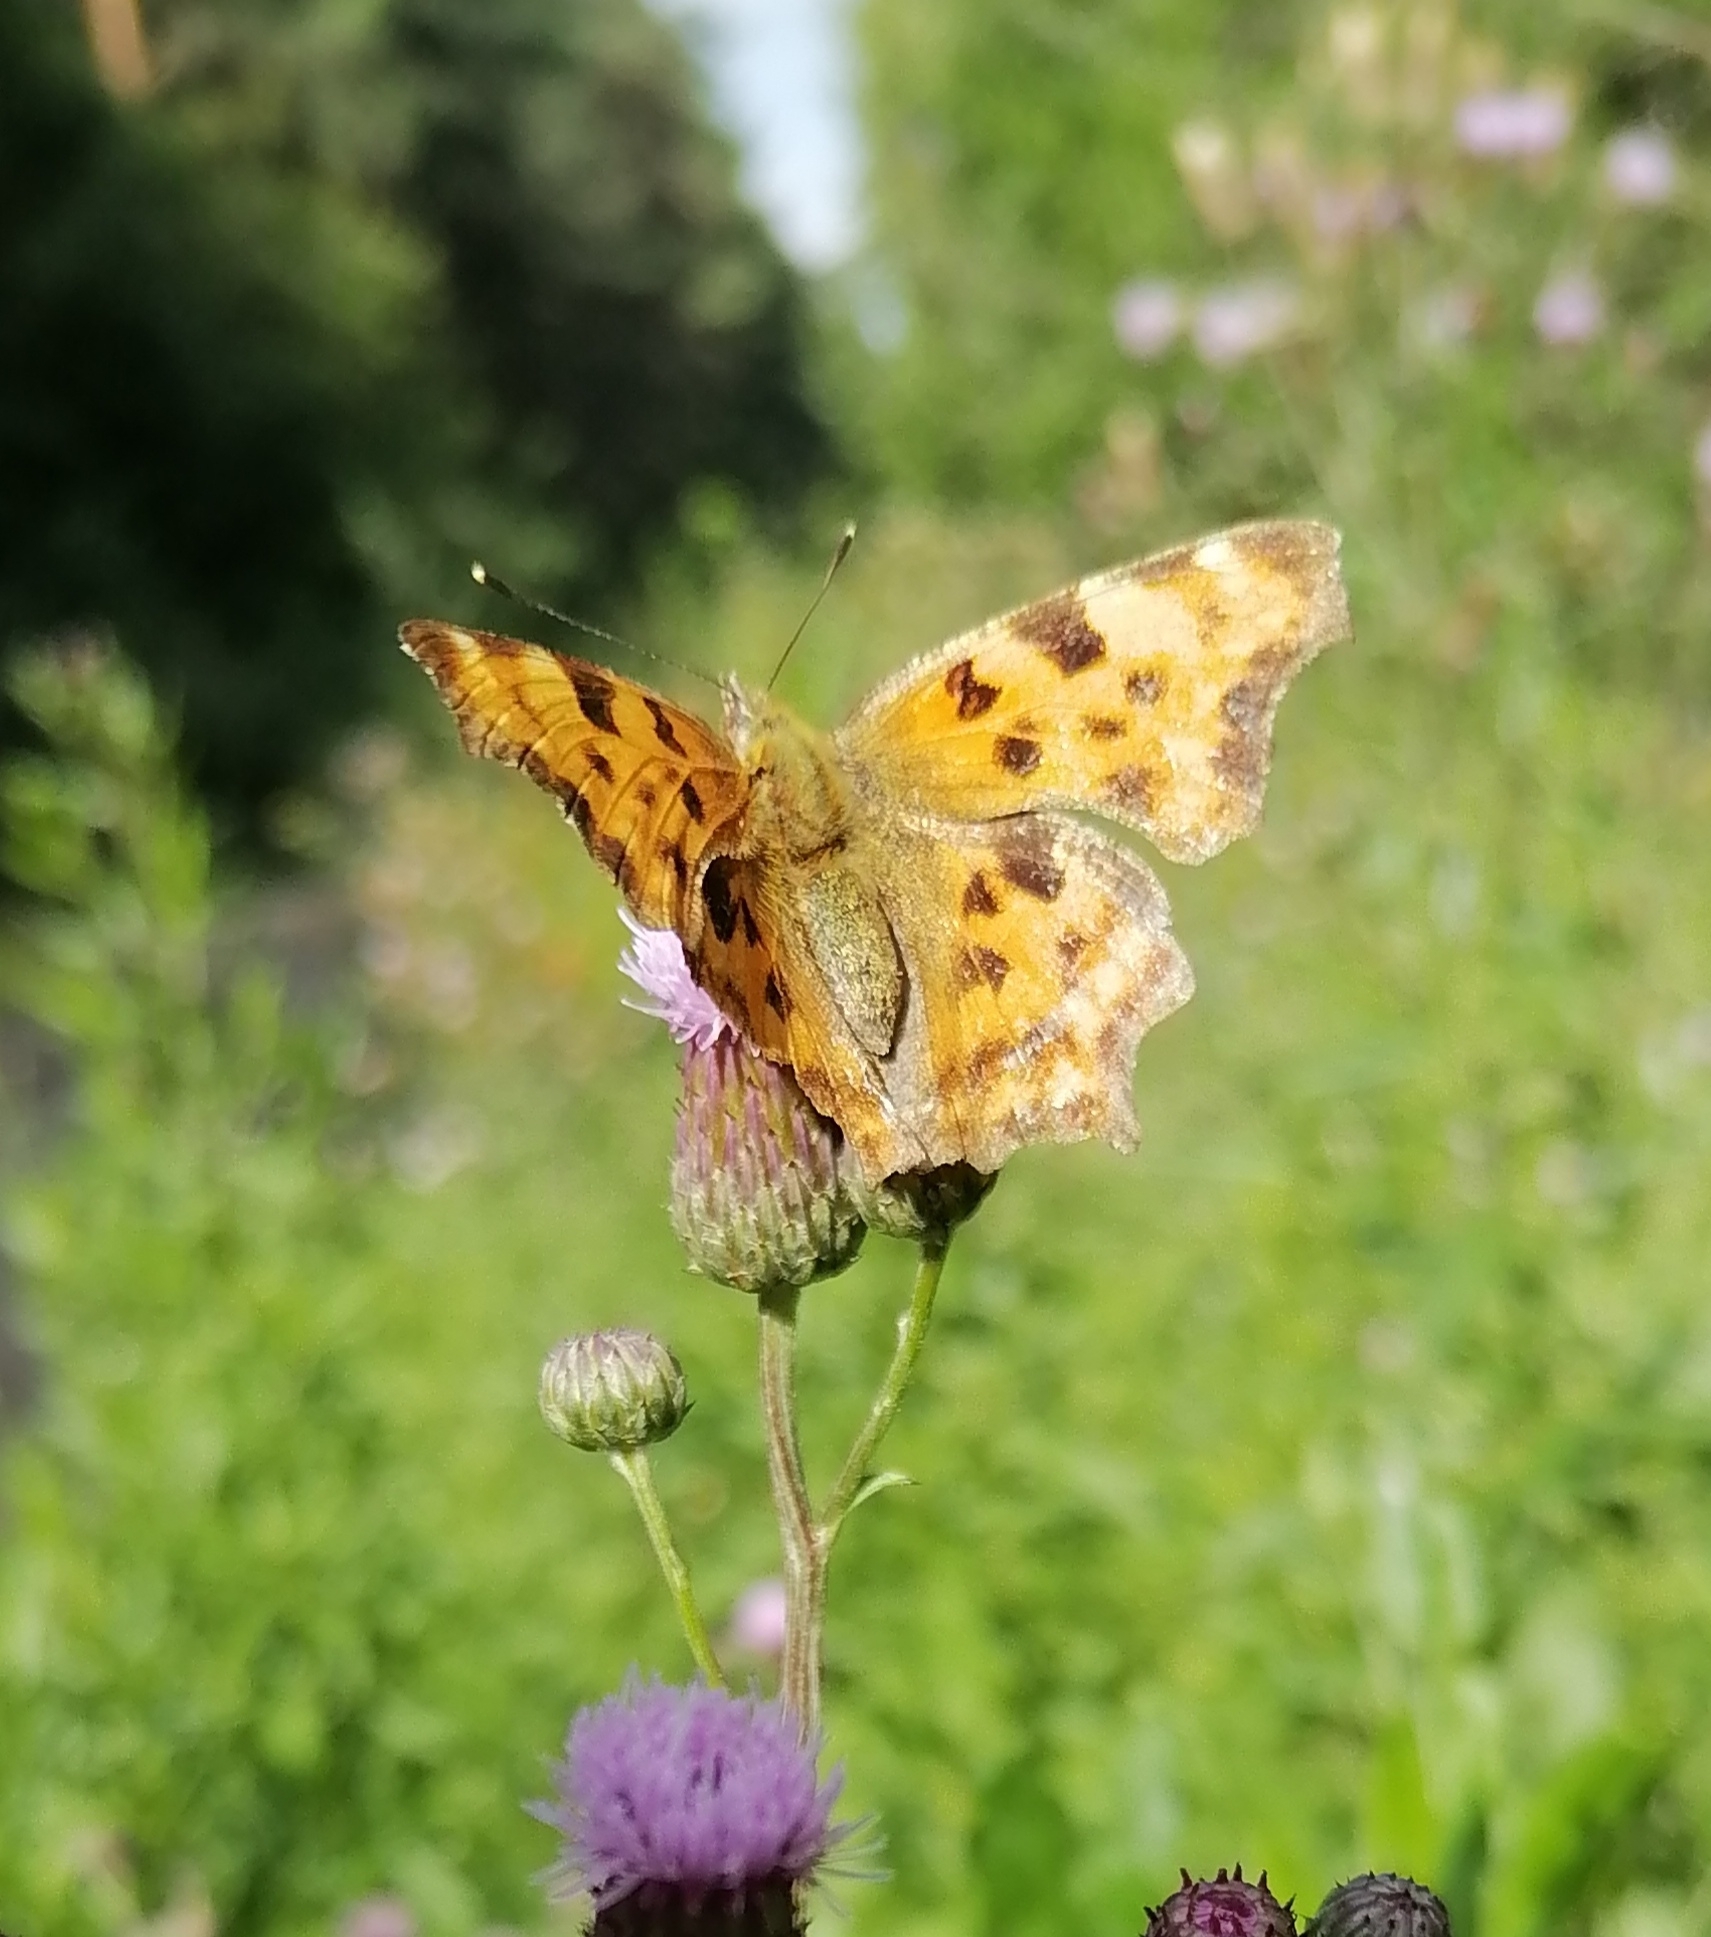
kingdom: Animalia
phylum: Arthropoda
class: Insecta
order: Lepidoptera
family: Nymphalidae
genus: Polygonia
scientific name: Polygonia c-album
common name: Comma
